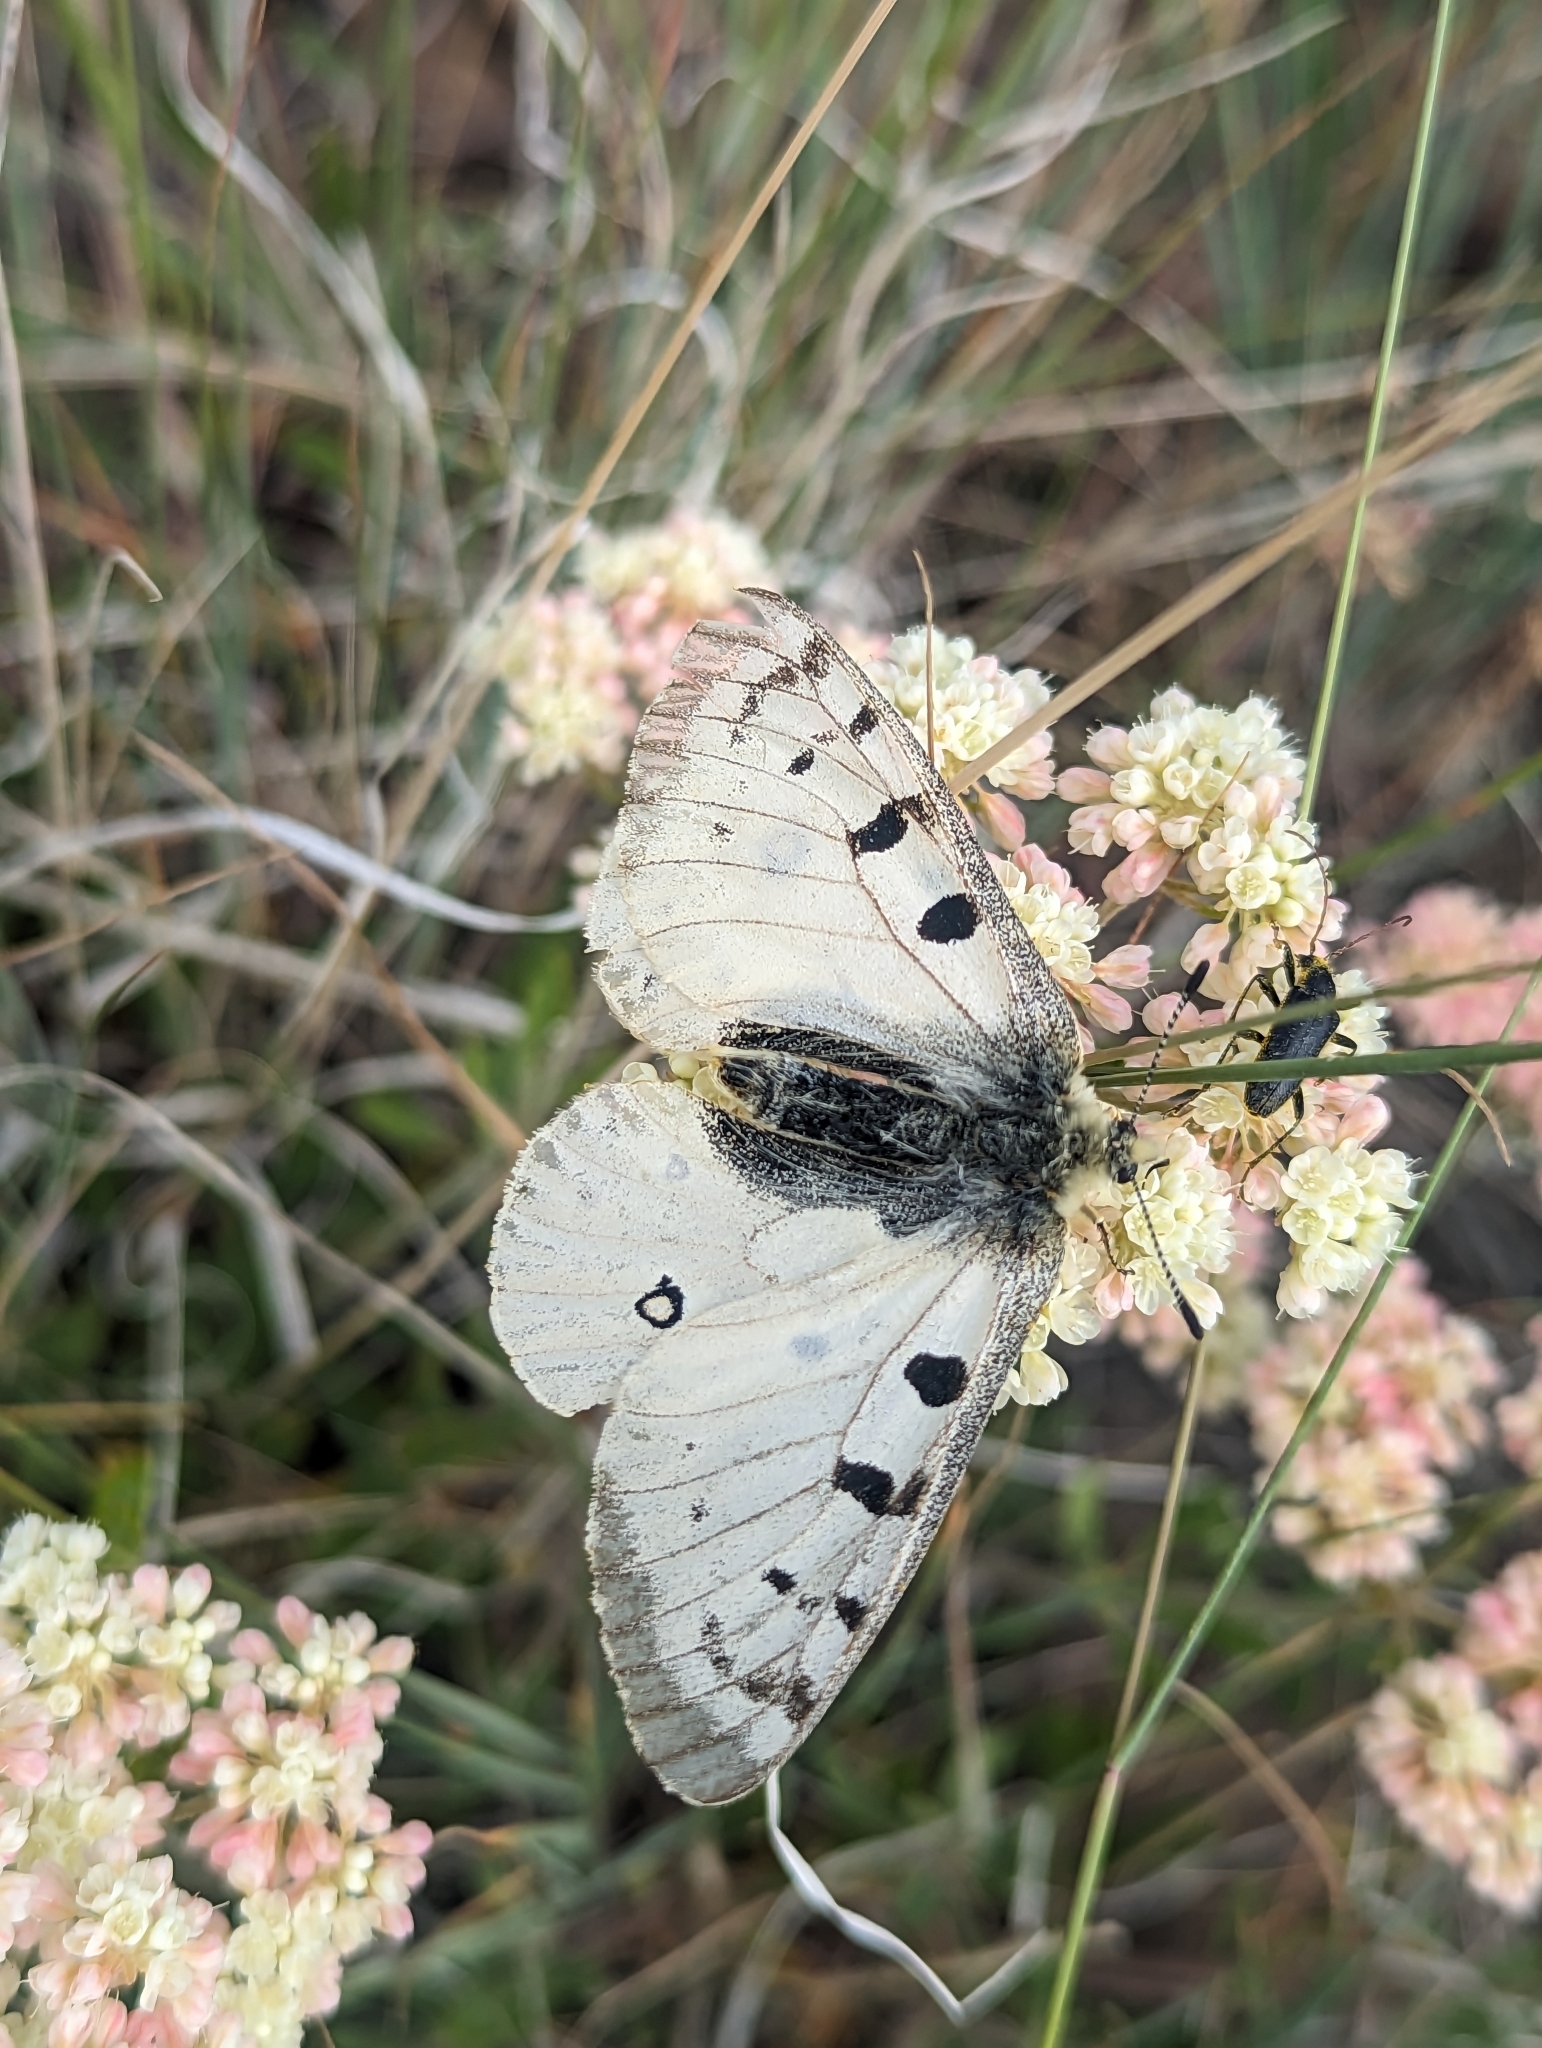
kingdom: Animalia
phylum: Arthropoda
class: Insecta
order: Lepidoptera
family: Papilionidae
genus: Parnassius
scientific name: Parnassius smintheus
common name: Mountain parnassian
